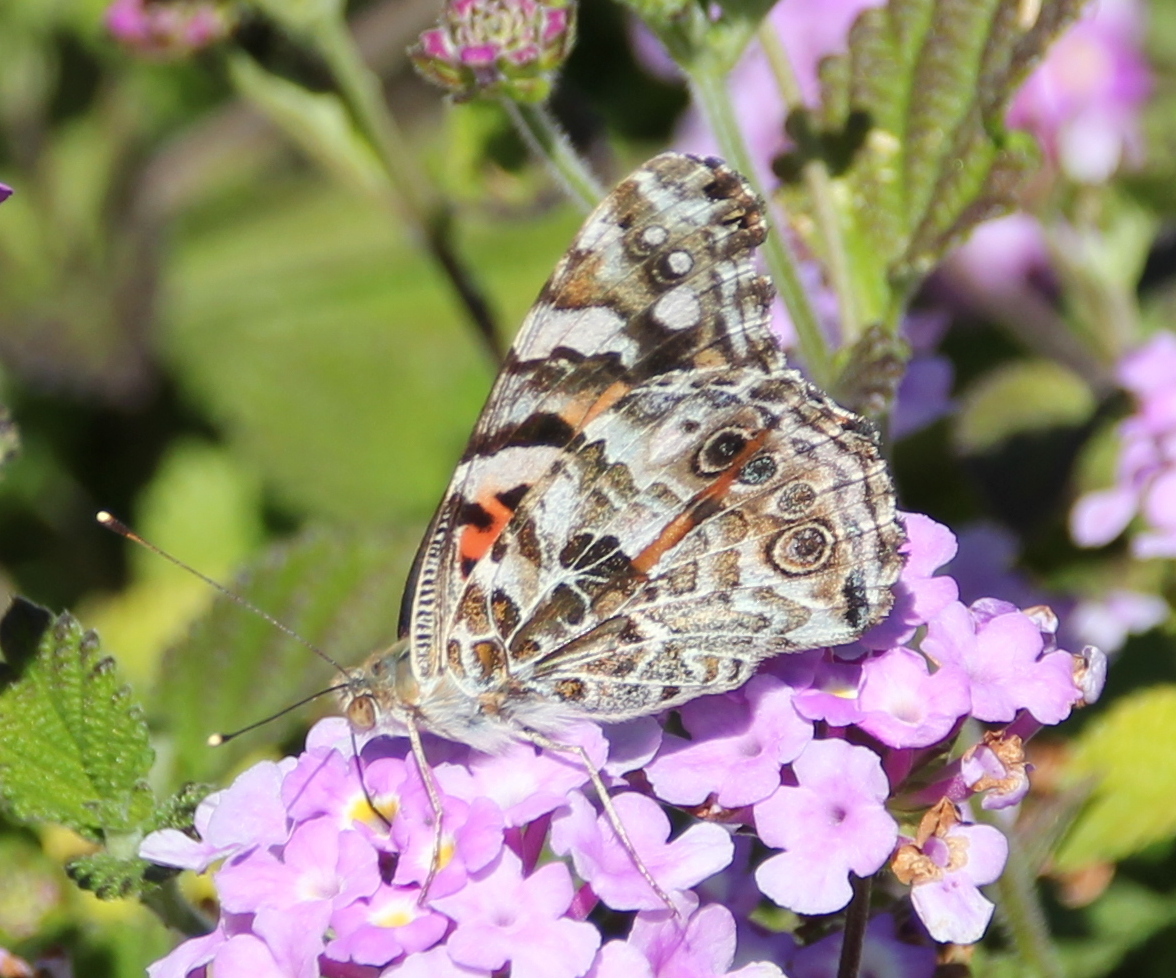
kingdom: Animalia
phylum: Arthropoda
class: Insecta
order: Lepidoptera
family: Nymphalidae
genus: Vanessa
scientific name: Vanessa cardui
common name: Painted lady
